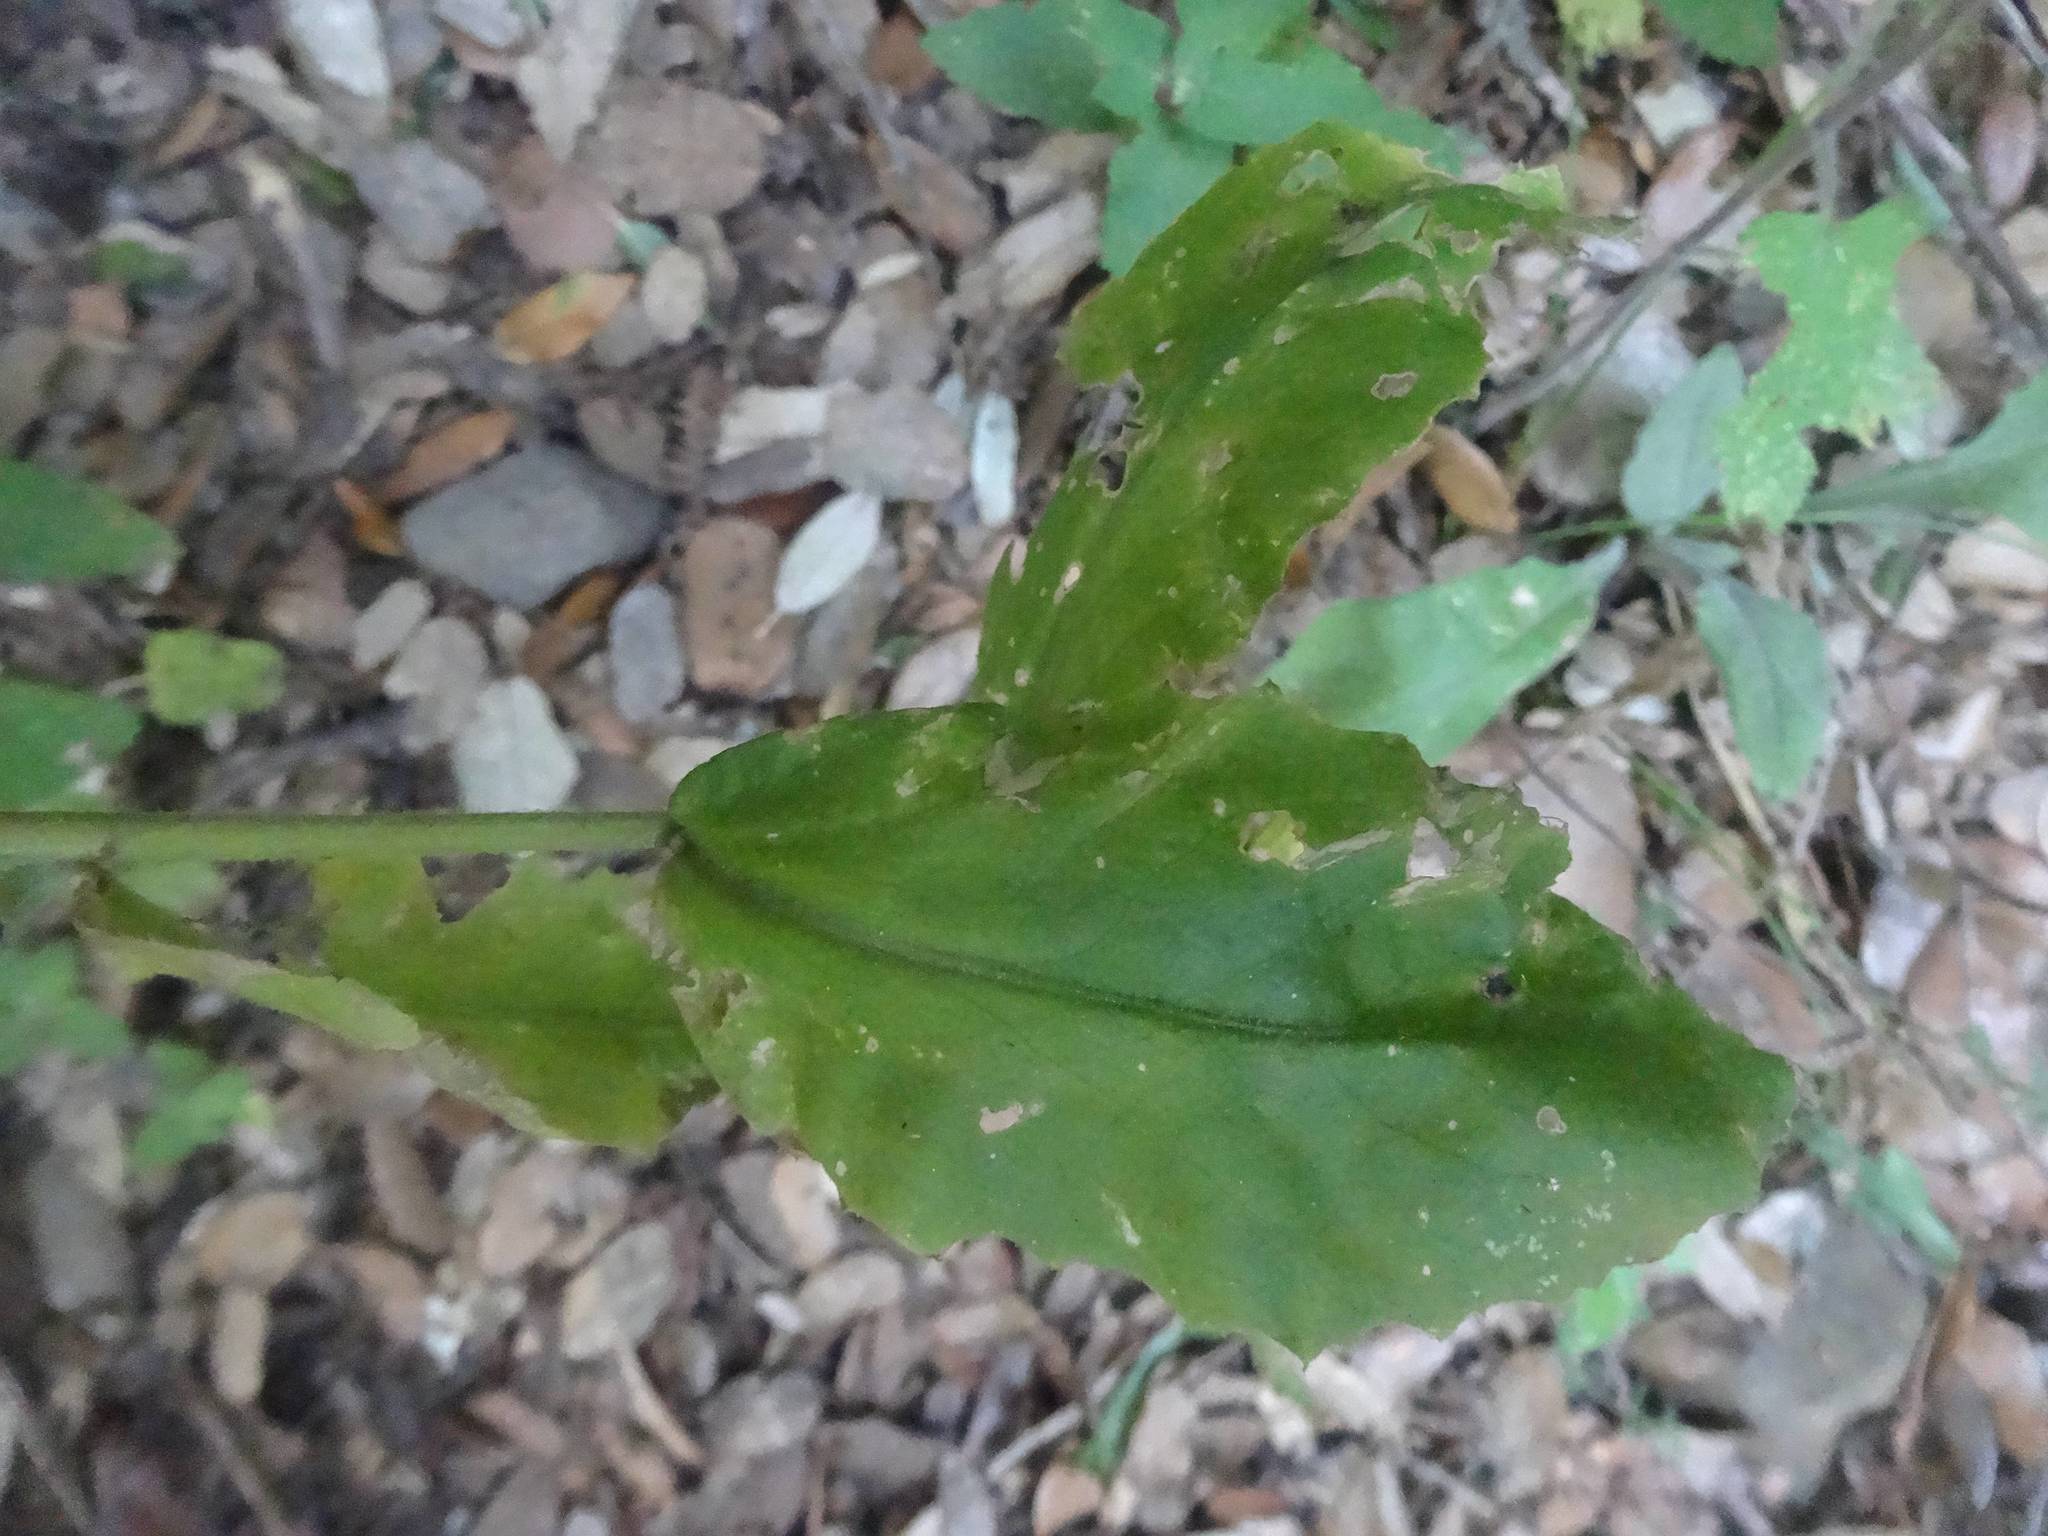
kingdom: Plantae
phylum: Tracheophyta
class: Magnoliopsida
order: Brassicales
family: Brassicaceae
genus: Pseudoturritis
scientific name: Pseudoturritis turrita
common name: Tower cress
